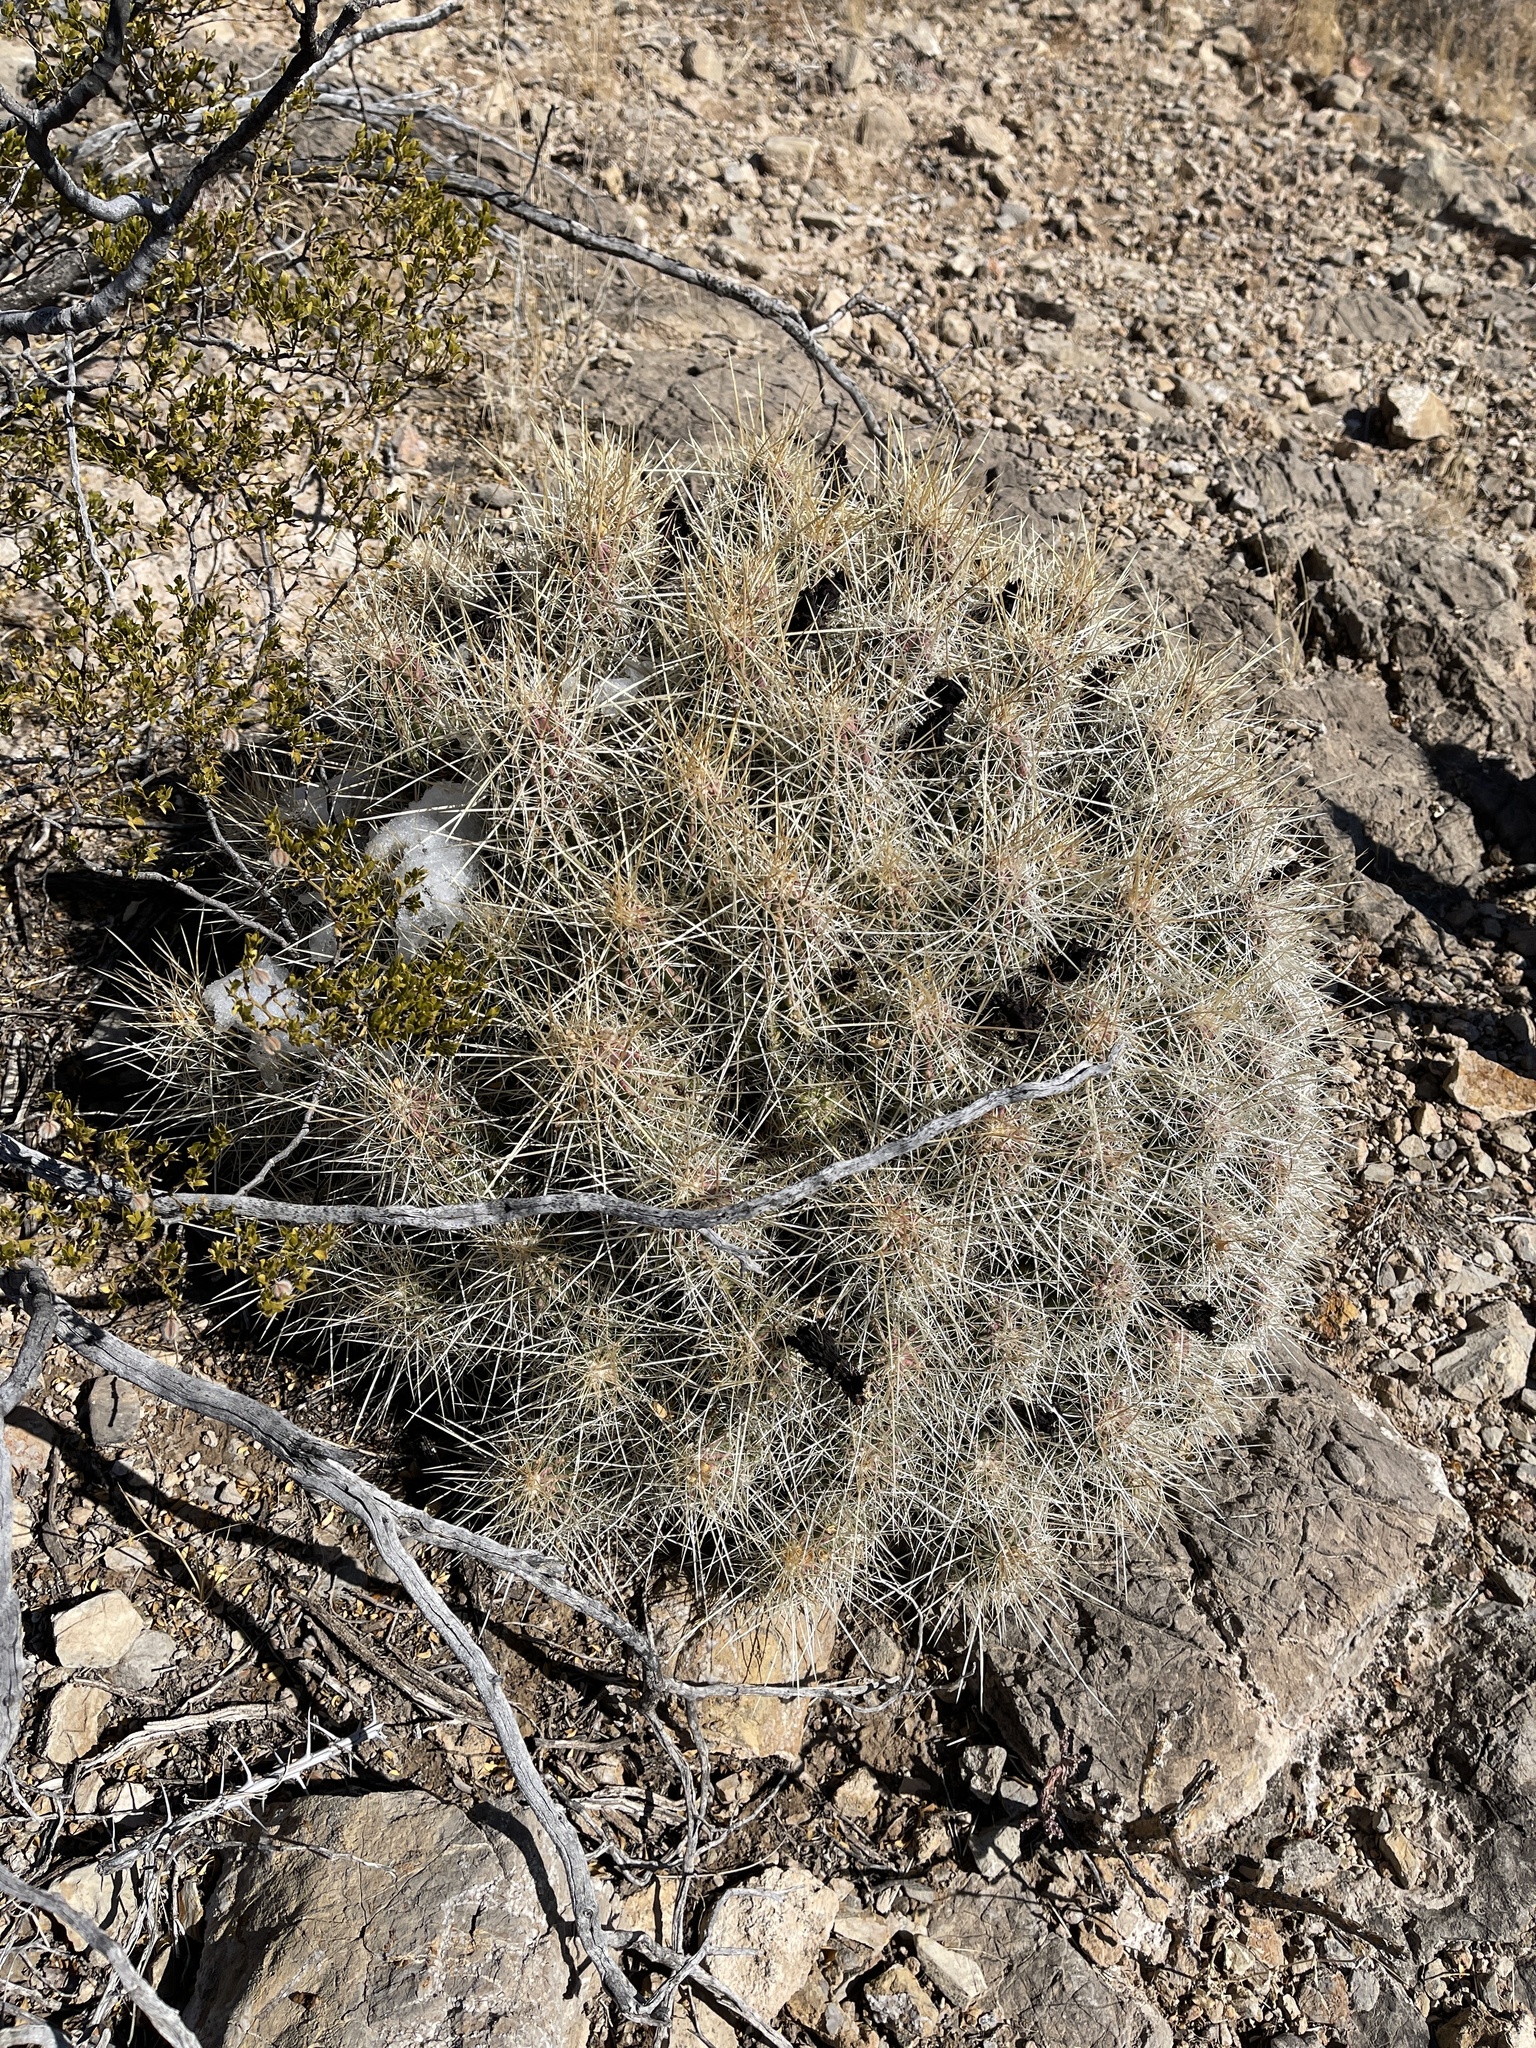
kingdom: Plantae
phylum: Tracheophyta
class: Magnoliopsida
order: Caryophyllales
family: Cactaceae
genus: Echinocereus
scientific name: Echinocereus stramineus
